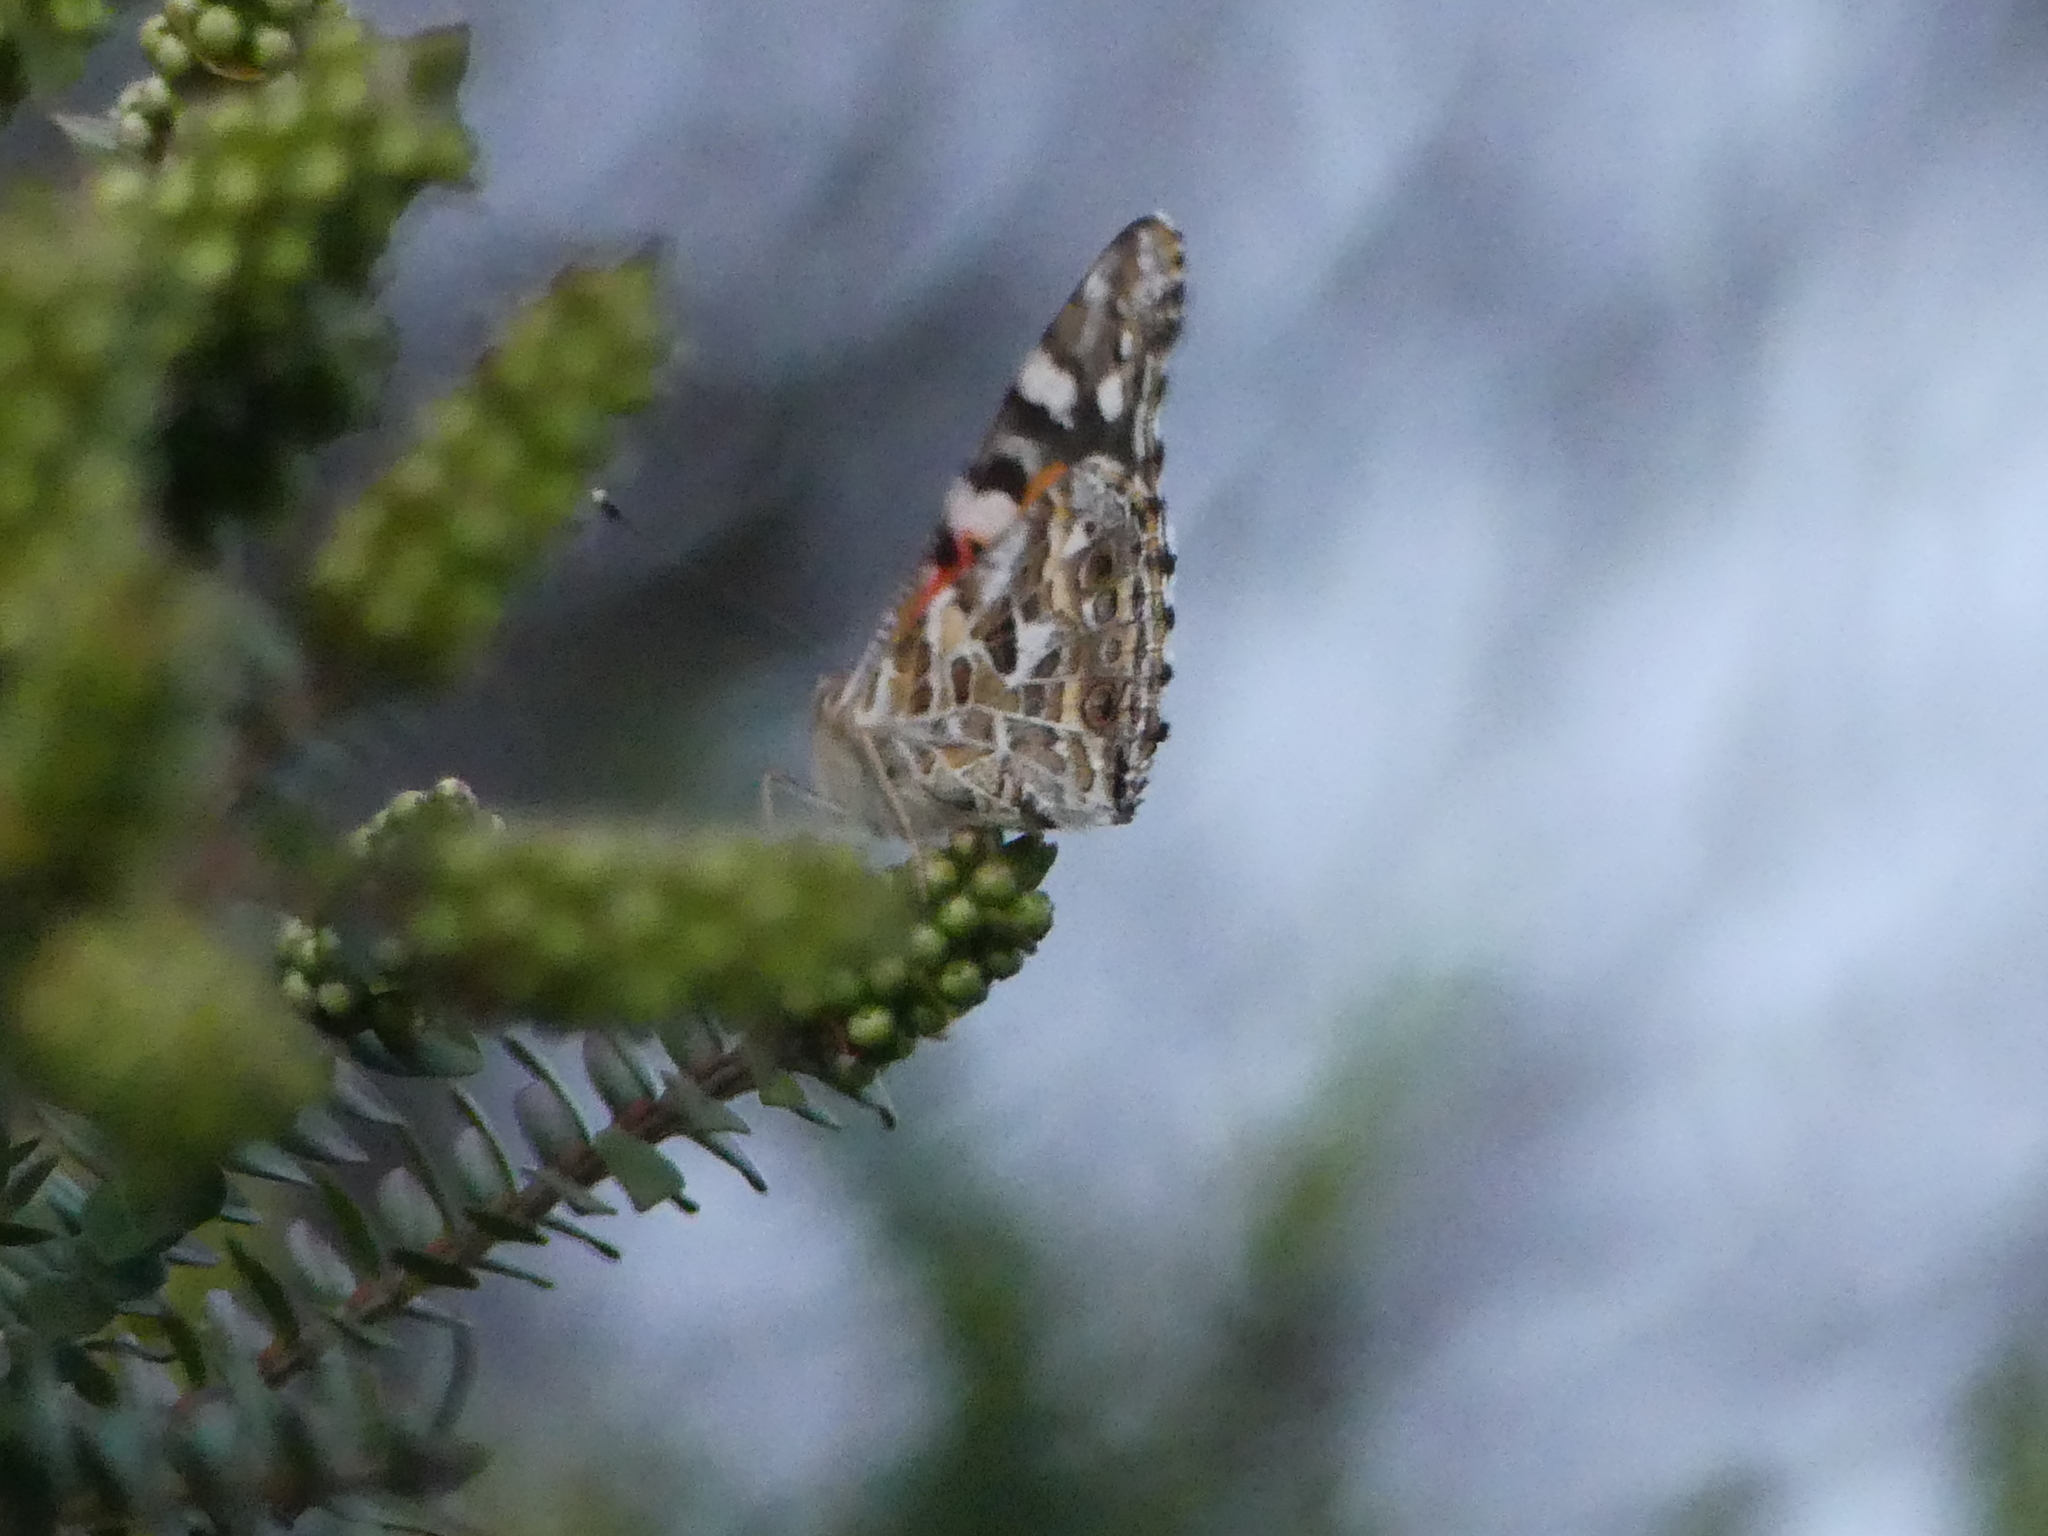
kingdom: Animalia
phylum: Arthropoda
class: Insecta
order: Lepidoptera
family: Nymphalidae
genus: Vanessa
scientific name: Vanessa kershawi
